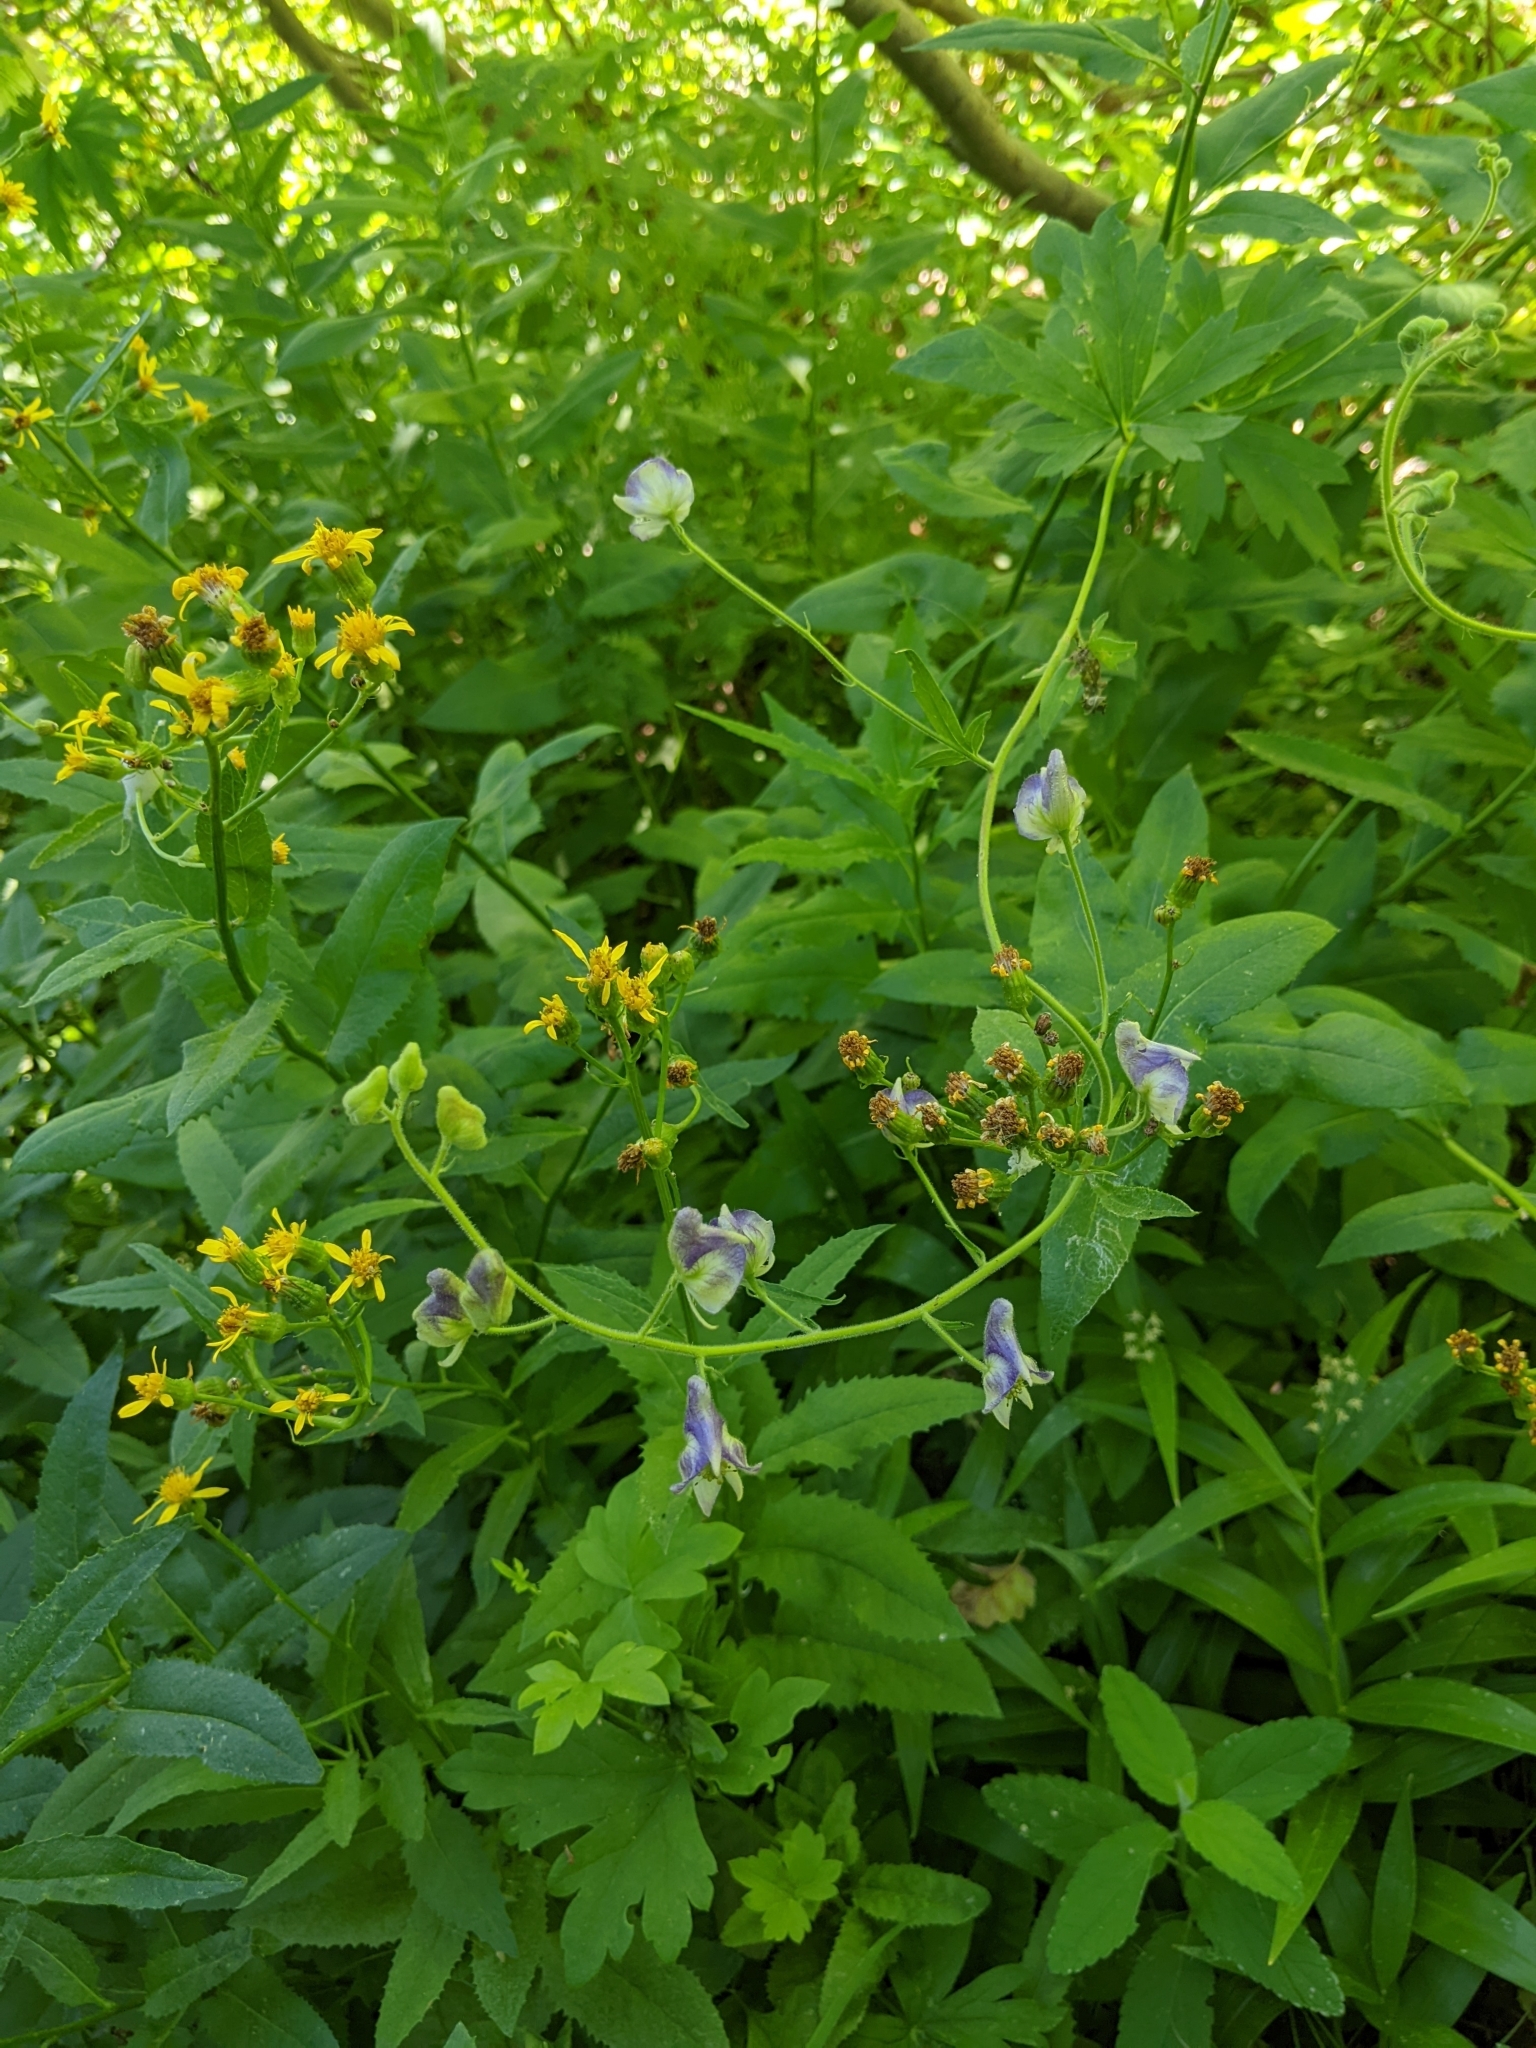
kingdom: Plantae
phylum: Tracheophyta
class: Magnoliopsida
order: Ranunculales
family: Ranunculaceae
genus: Aconitum
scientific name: Aconitum columbianum
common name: Columbia aconite
